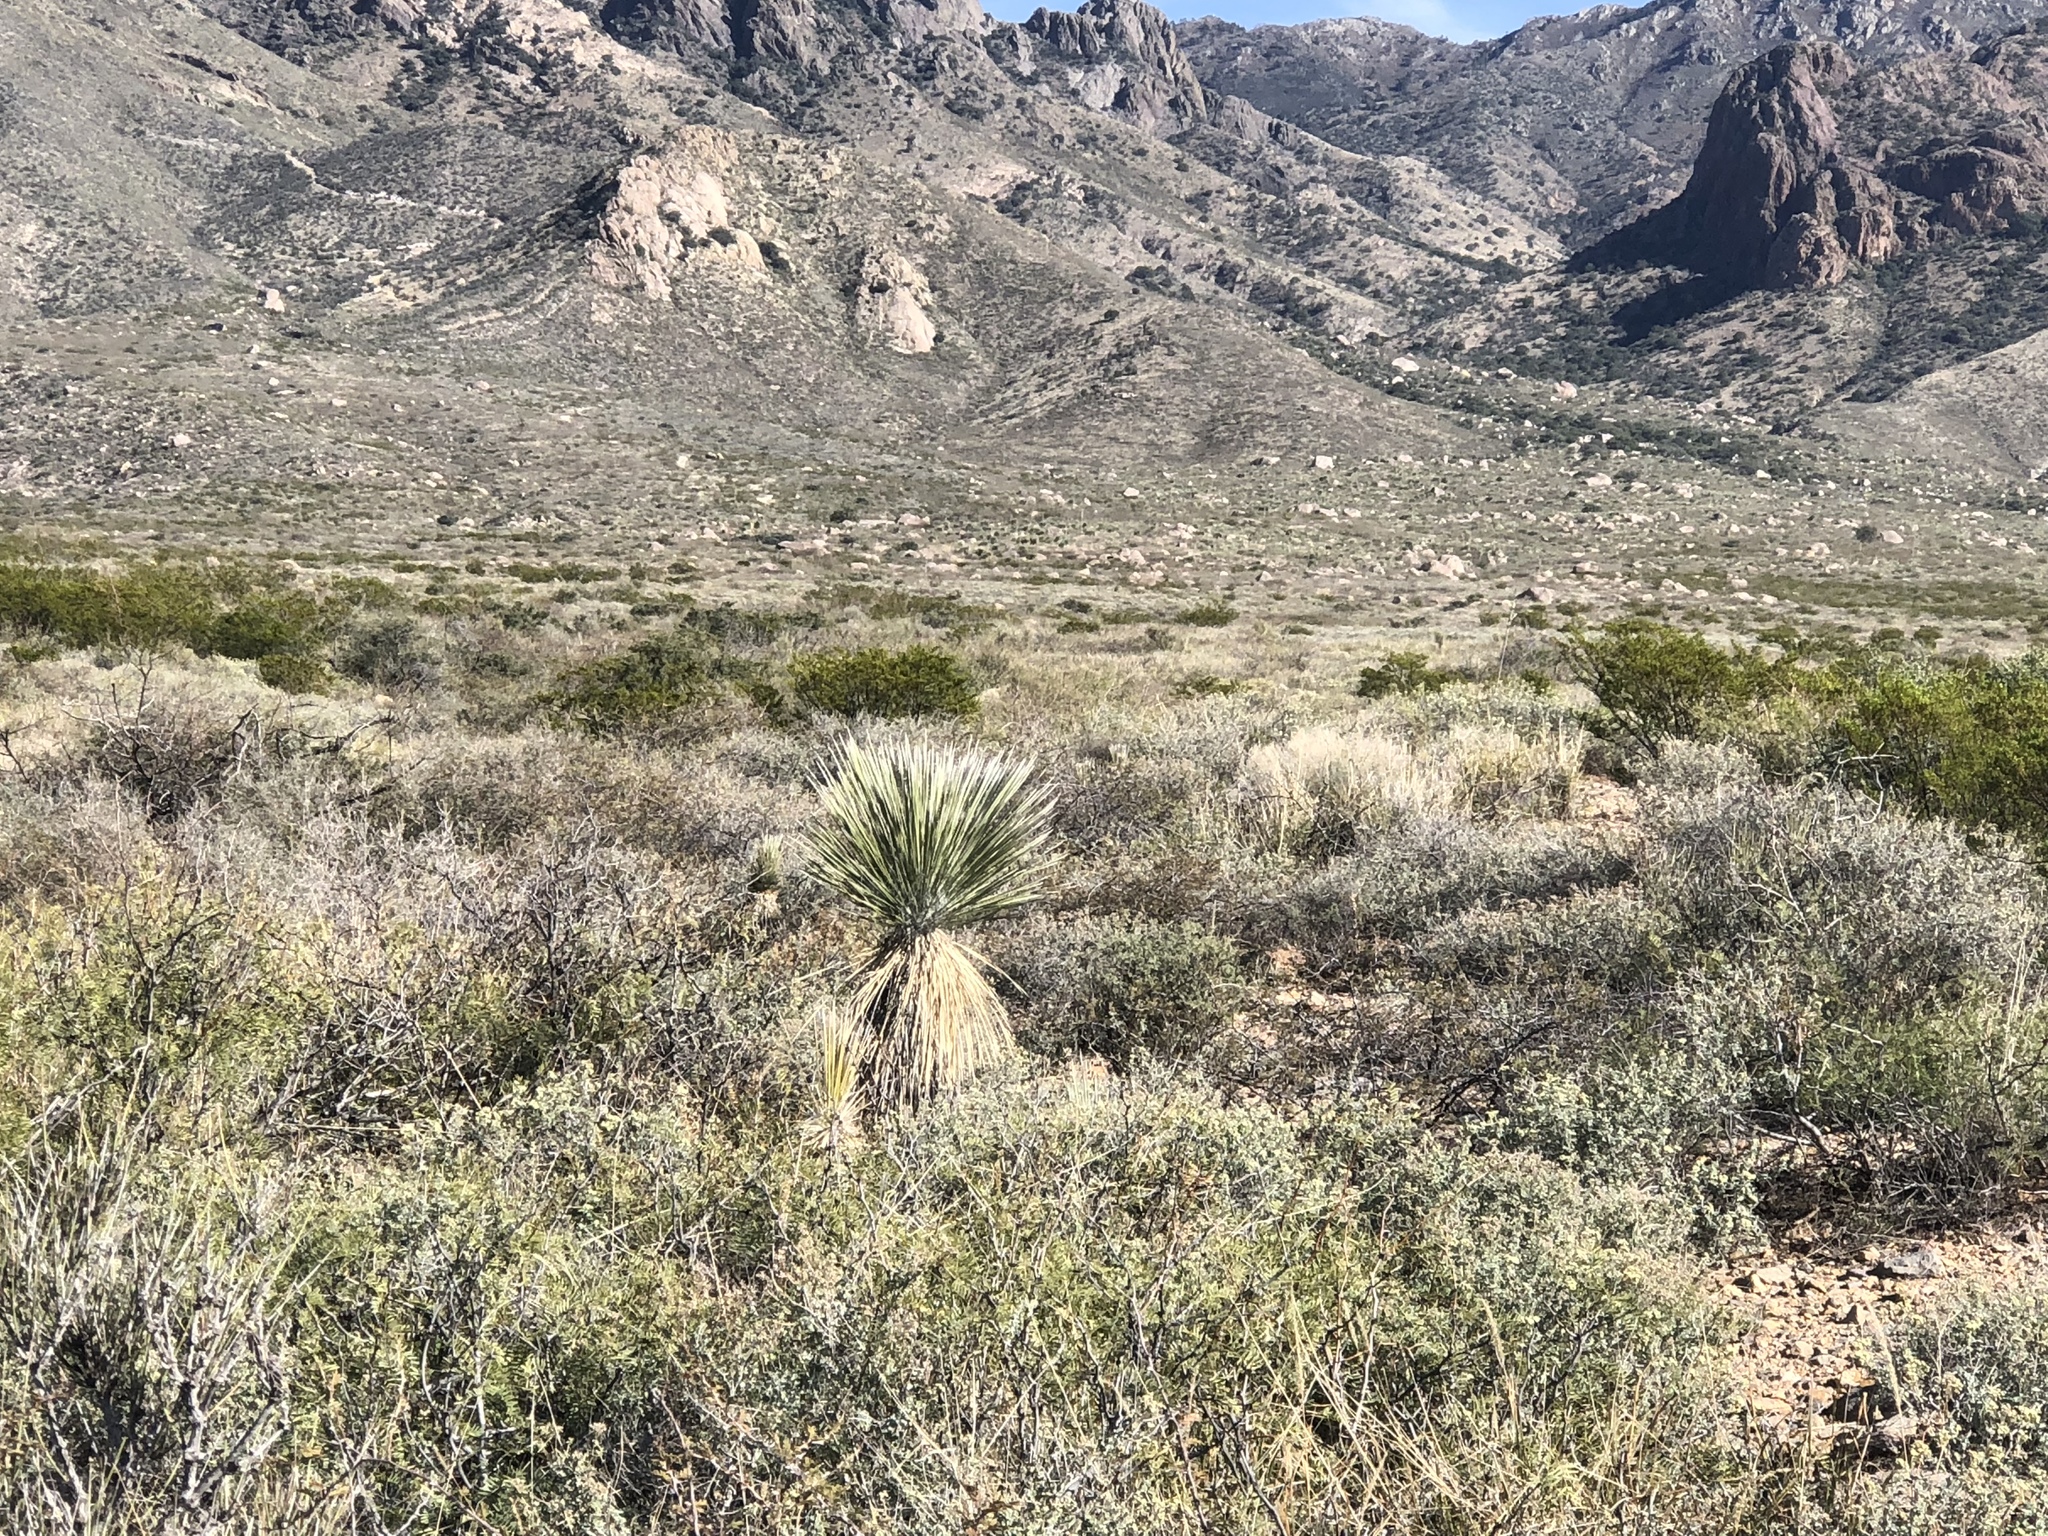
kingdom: Plantae
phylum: Tracheophyta
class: Liliopsida
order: Asparagales
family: Asparagaceae
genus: Yucca
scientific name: Yucca elata
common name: Palmella
